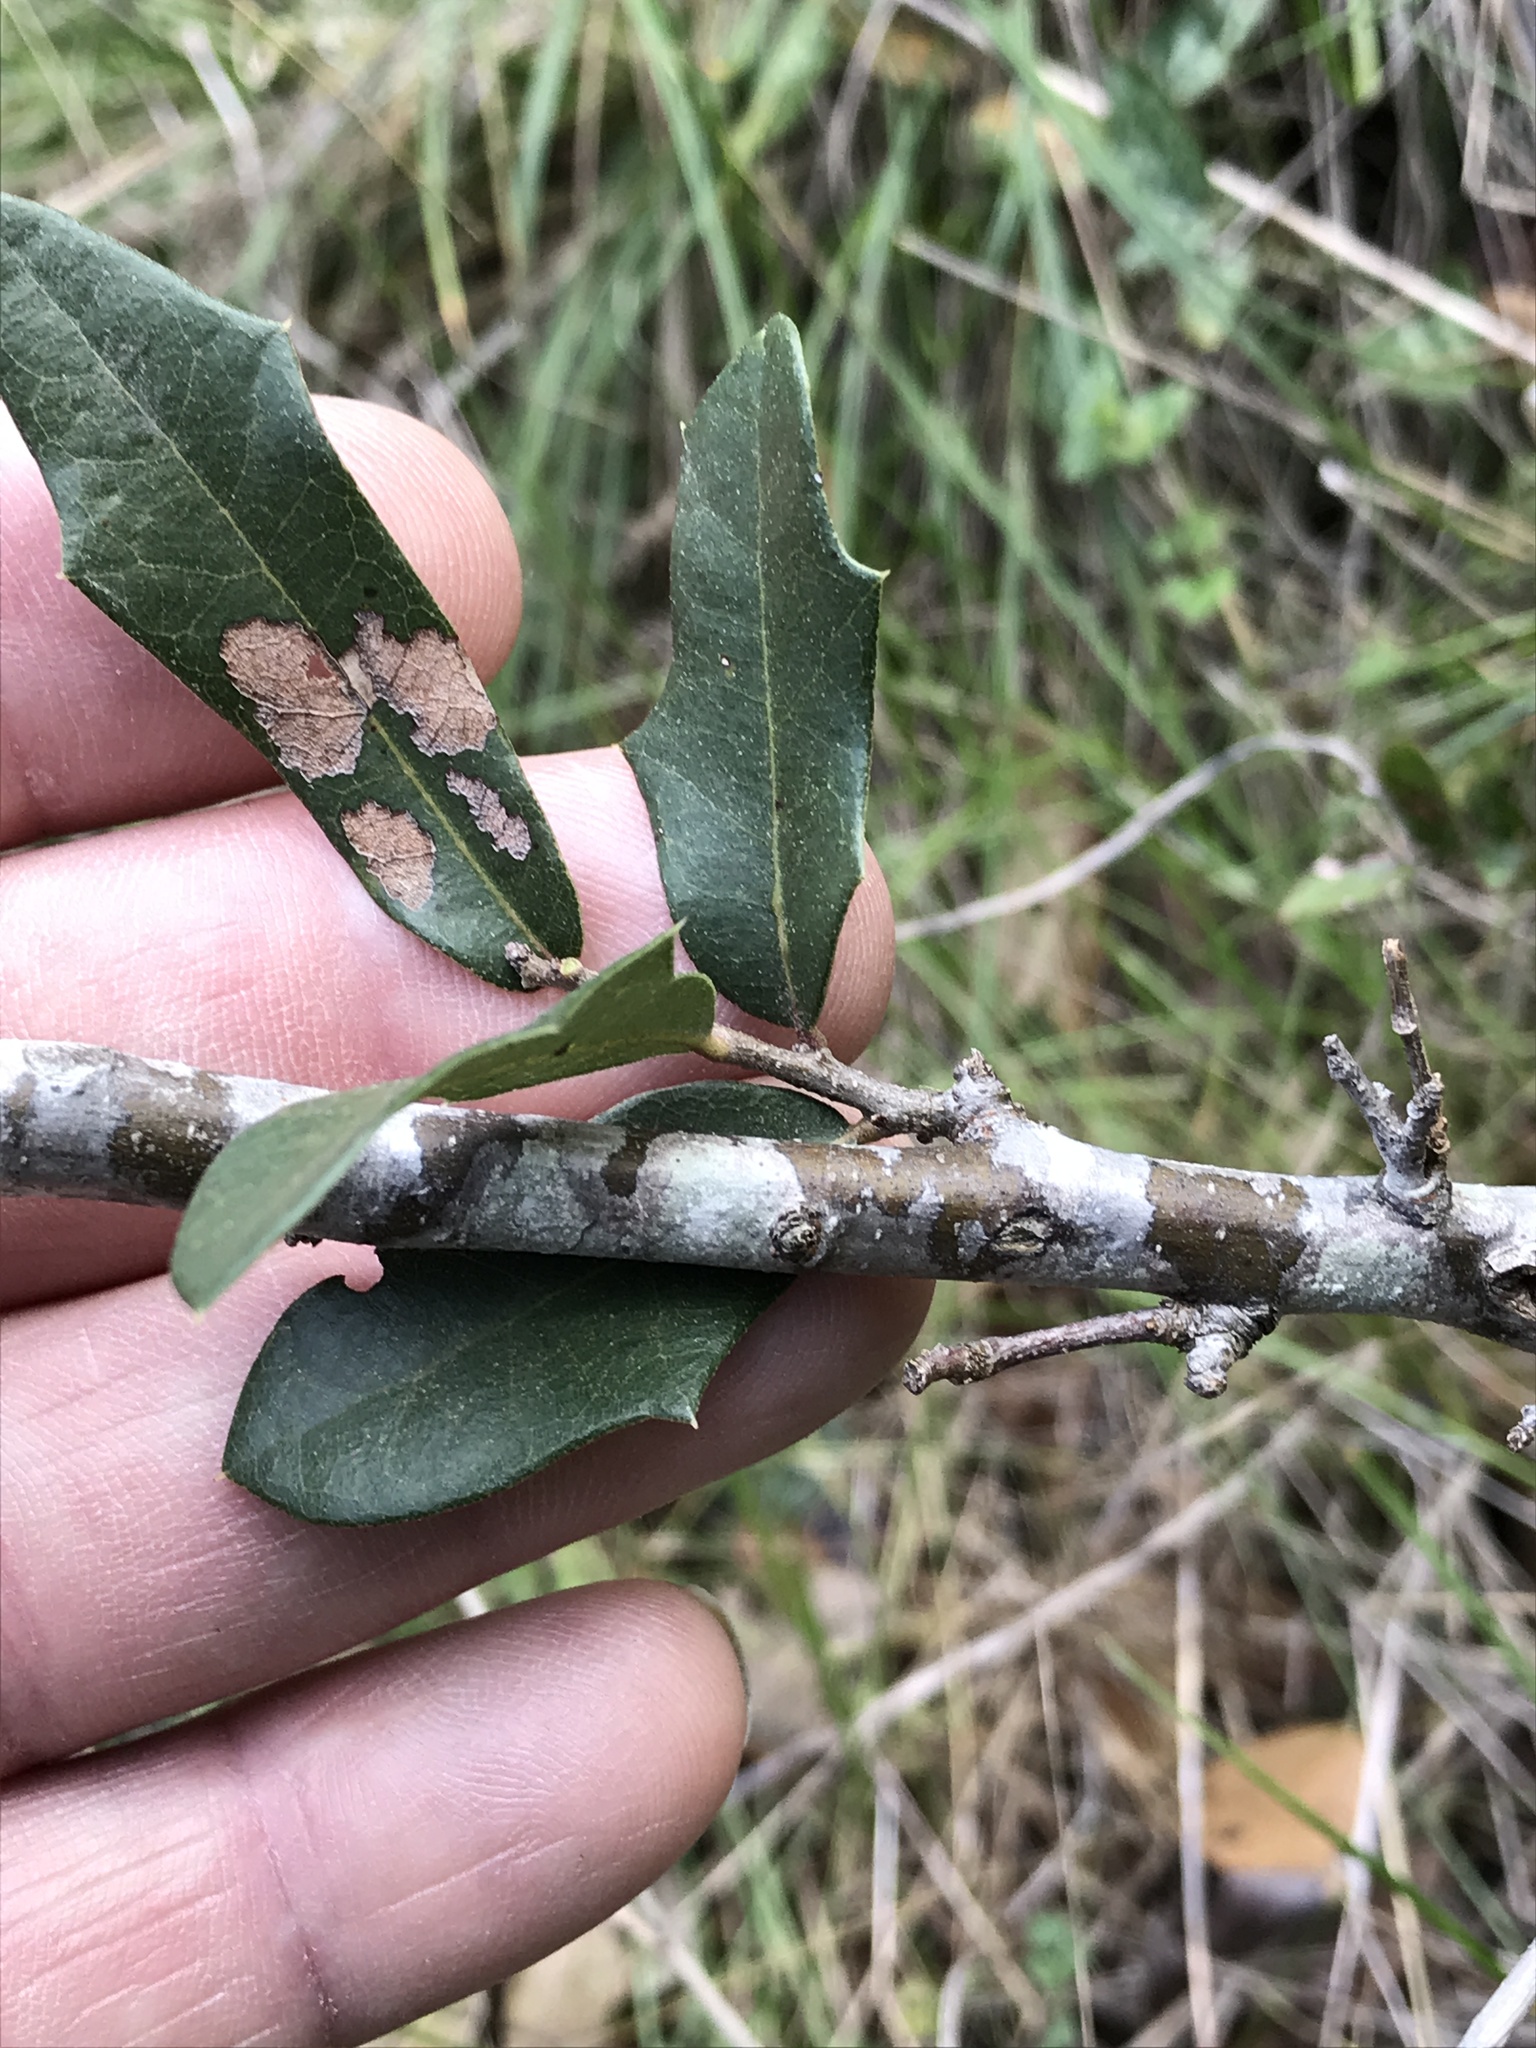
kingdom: Plantae
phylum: Tracheophyta
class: Magnoliopsida
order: Fagales
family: Fagaceae
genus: Quercus
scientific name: Quercus fusiformis
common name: Texas live oak
